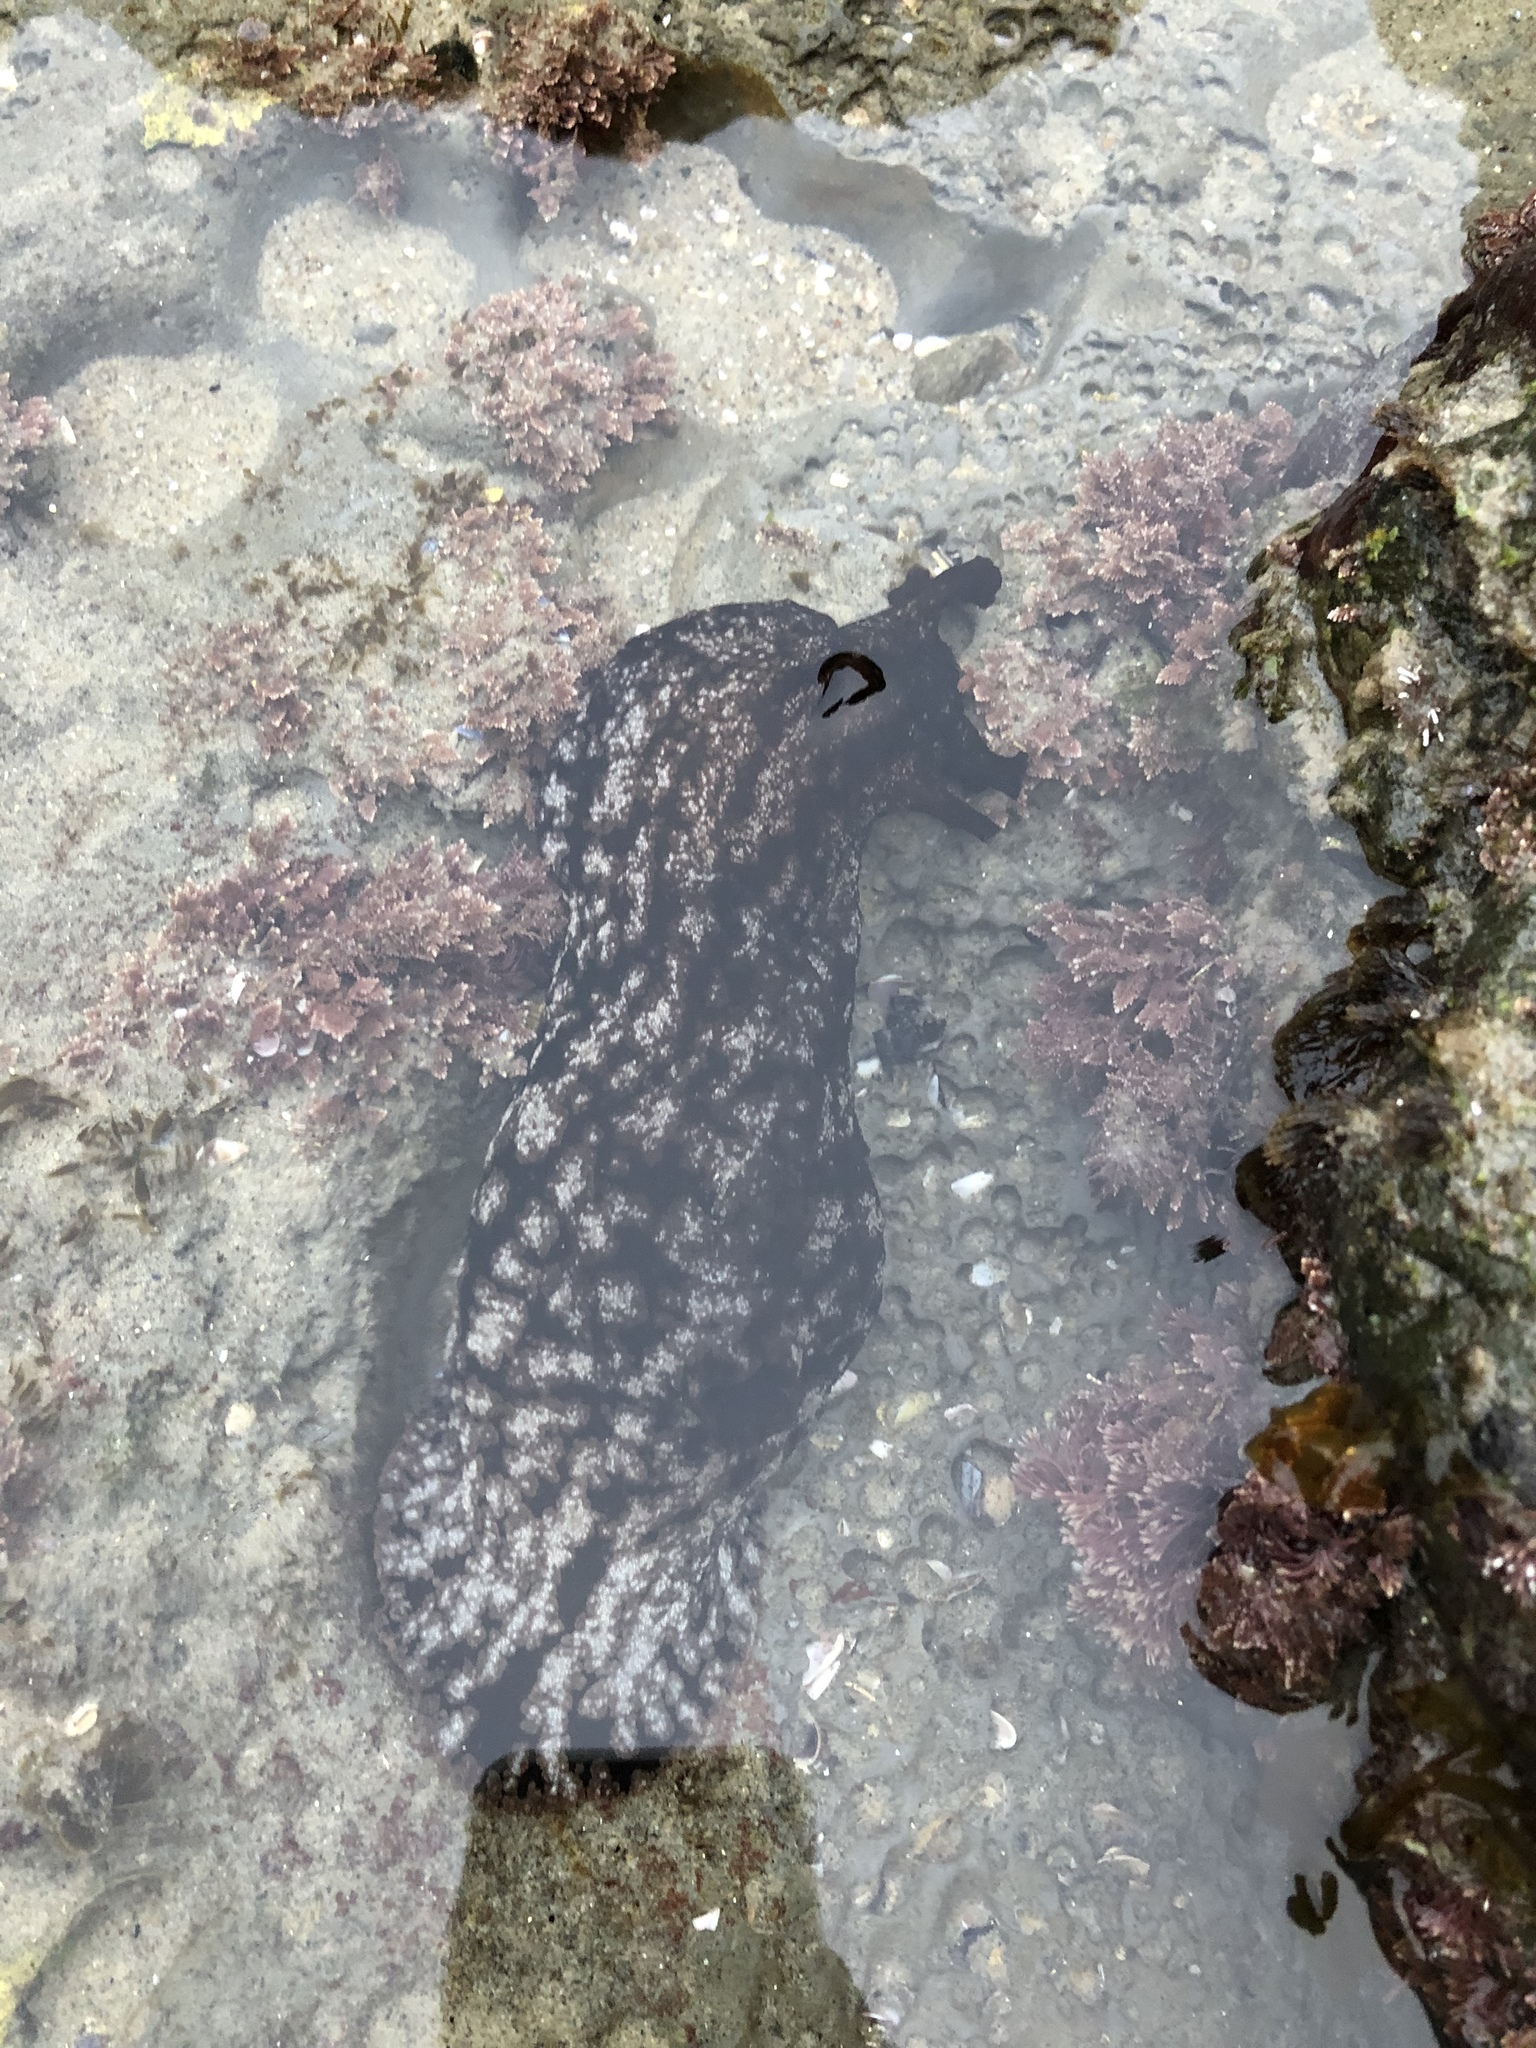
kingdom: Animalia
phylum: Mollusca
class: Gastropoda
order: Aplysiida
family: Aplysiidae
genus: Aplysia
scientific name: Aplysia californica
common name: California seahare
